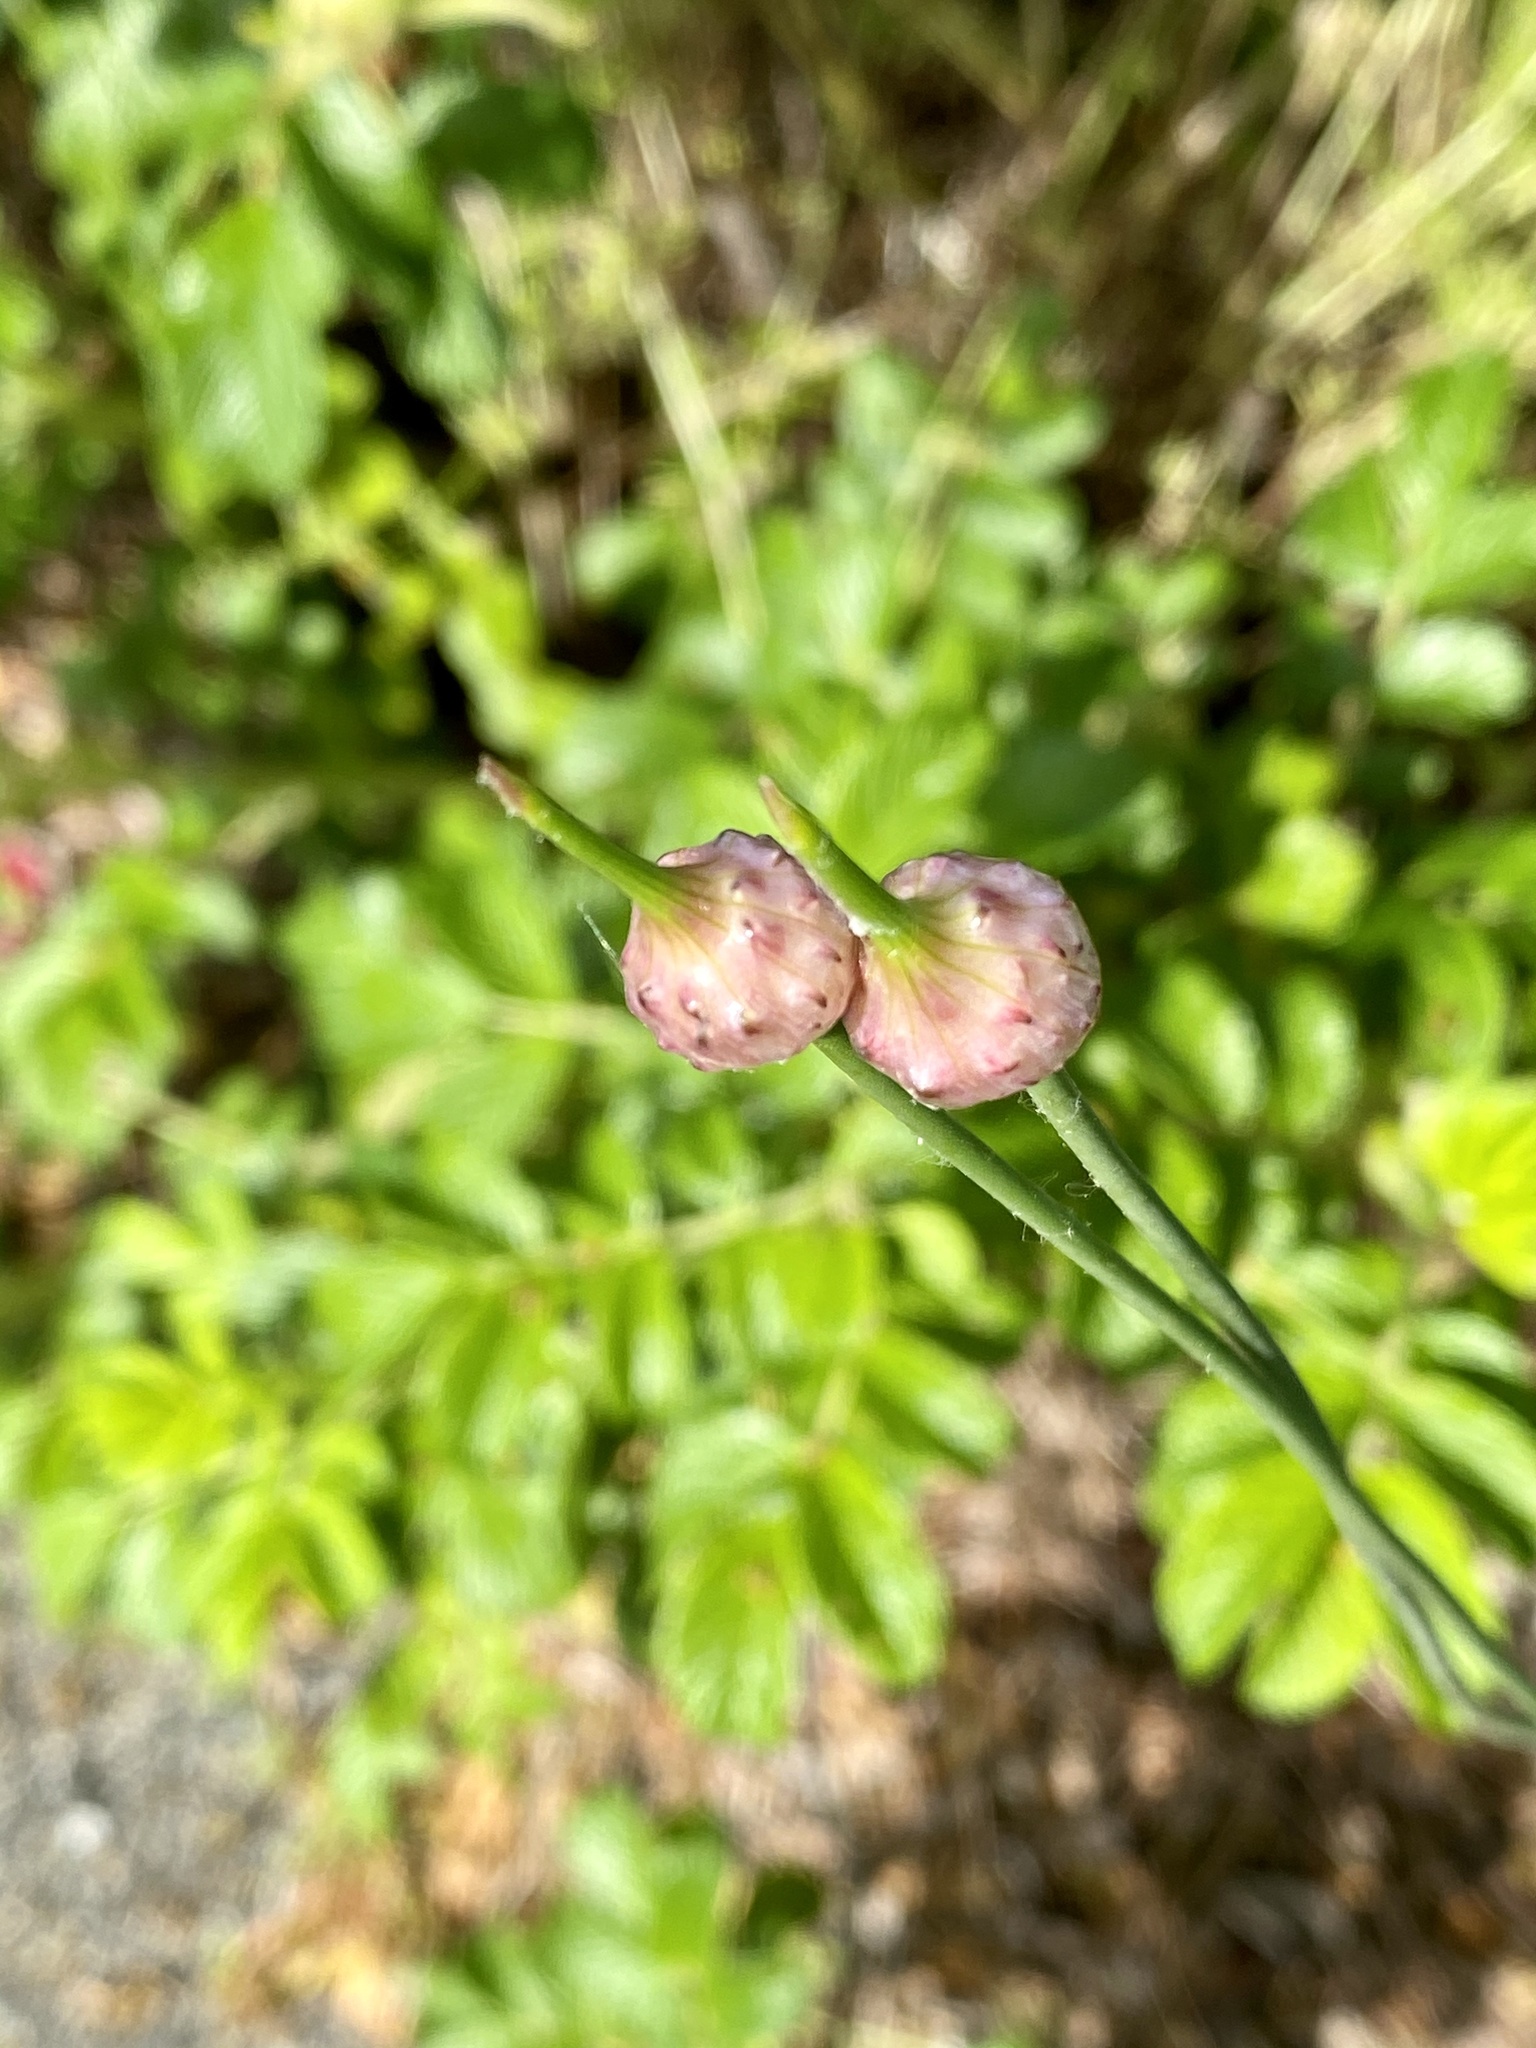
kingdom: Plantae
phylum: Tracheophyta
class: Liliopsida
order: Asparagales
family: Amaryllidaceae
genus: Allium
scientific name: Allium vineale
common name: Crow garlic
